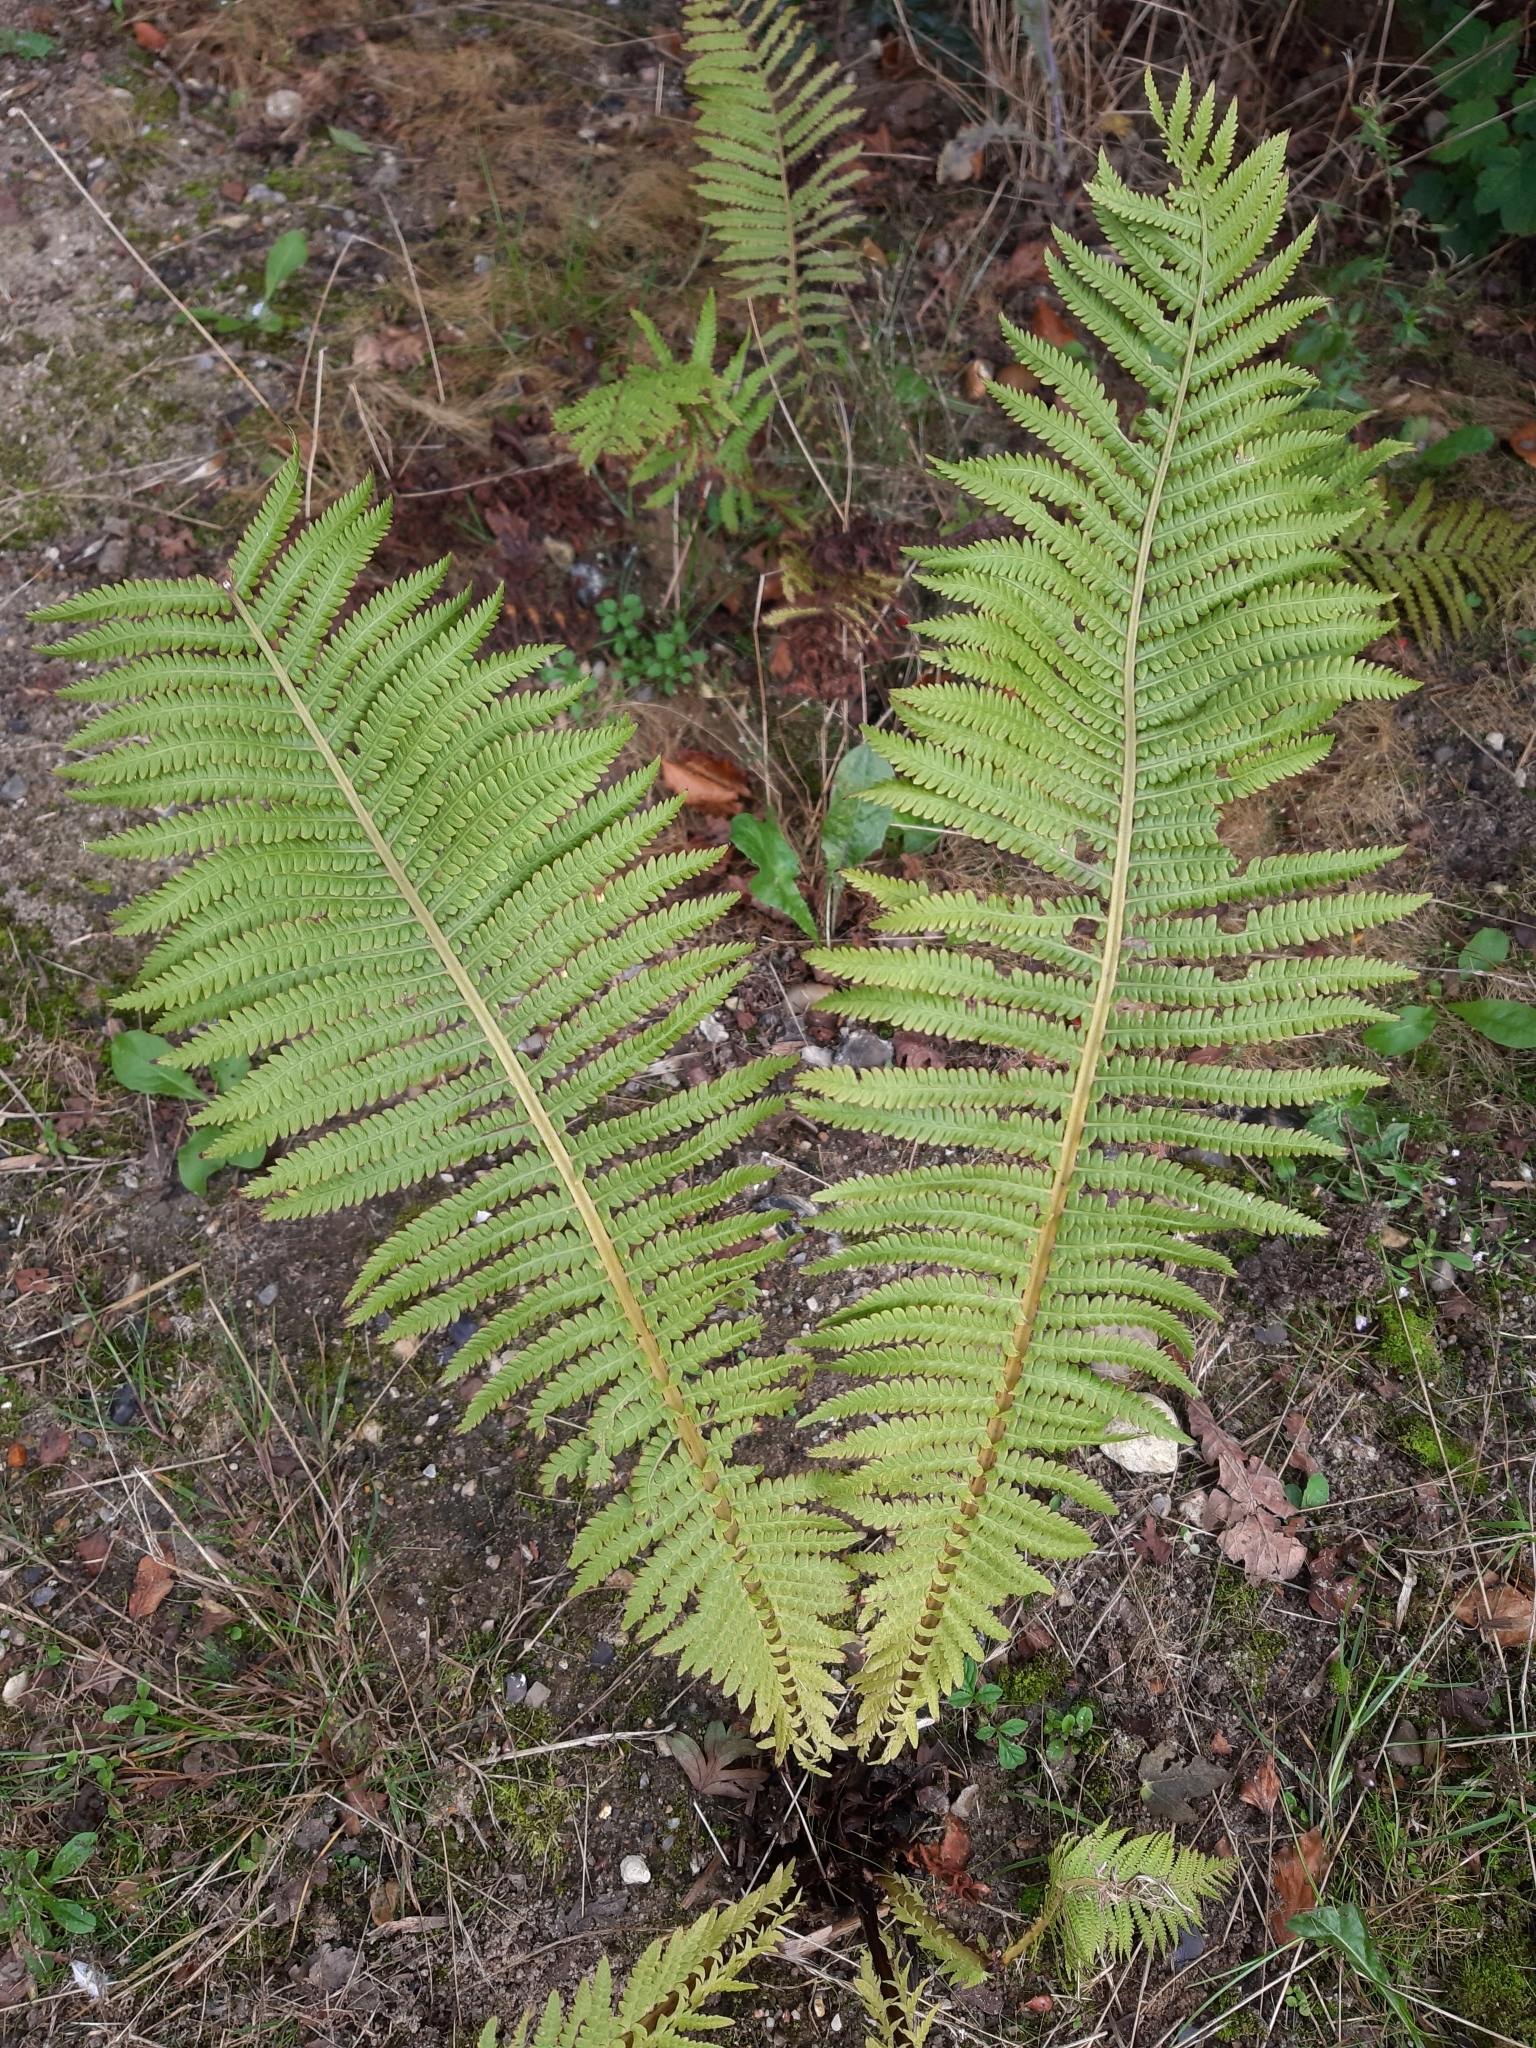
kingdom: Plantae
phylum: Tracheophyta
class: Polypodiopsida
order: Polypodiales
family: Onocleaceae
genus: Matteuccia
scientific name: Matteuccia struthiopteris
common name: Ostrich fern
